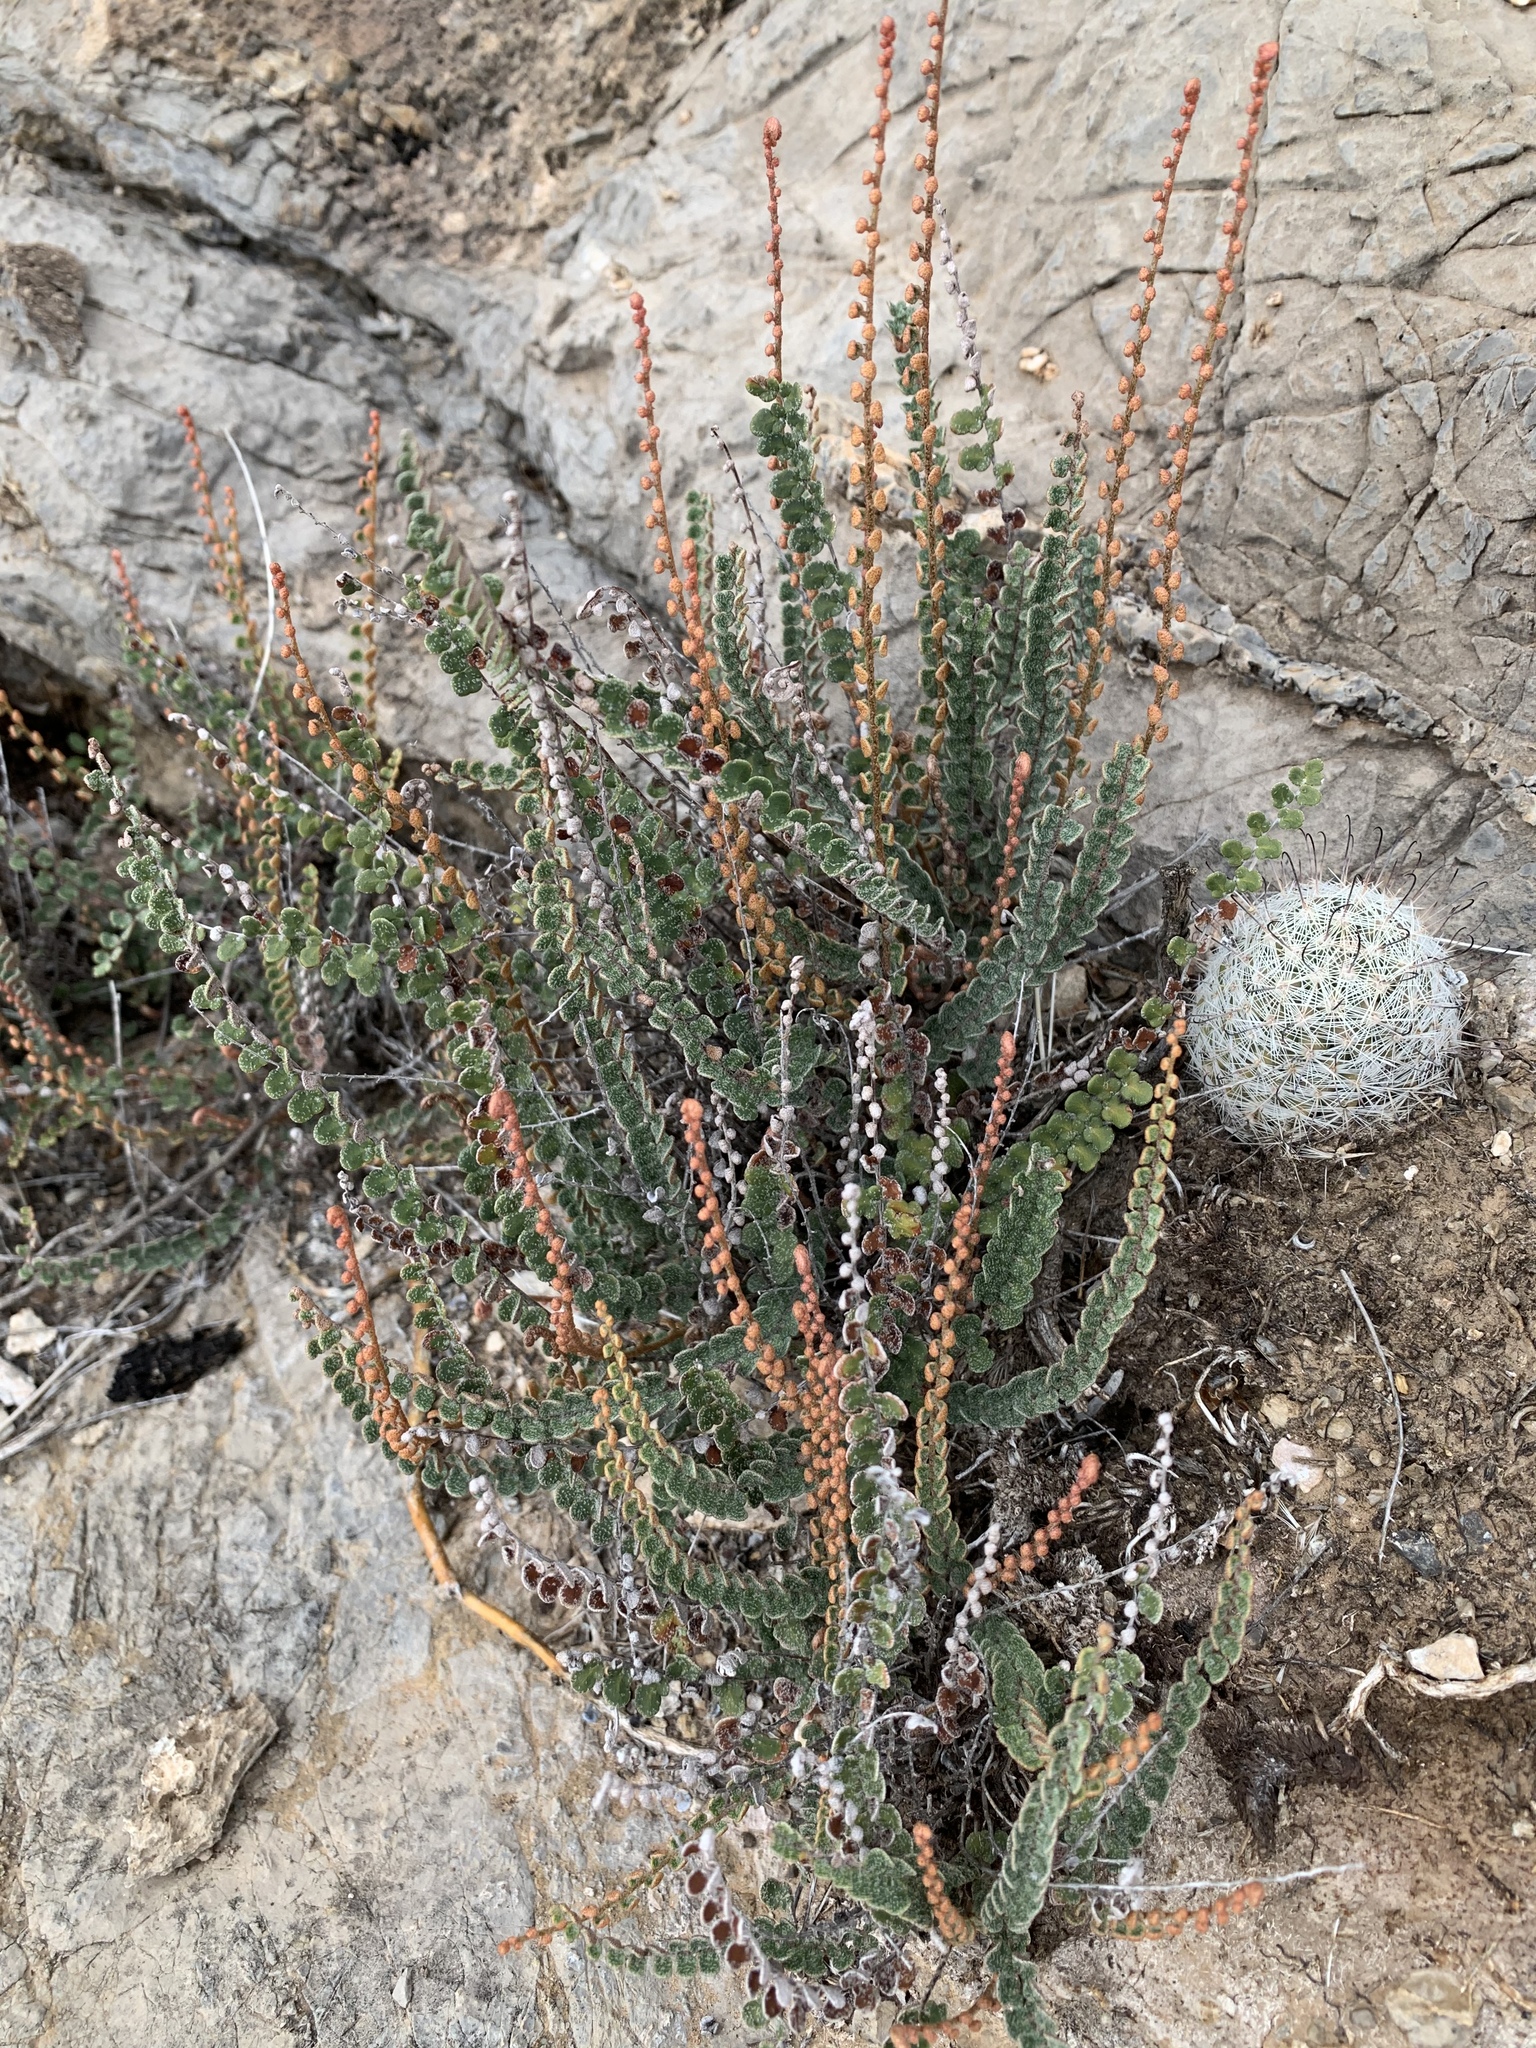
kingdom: Plantae
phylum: Tracheophyta
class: Polypodiopsida
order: Polypodiales
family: Pteridaceae
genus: Astrolepis
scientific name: Astrolepis cochisensis
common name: Scaly cloak fern
